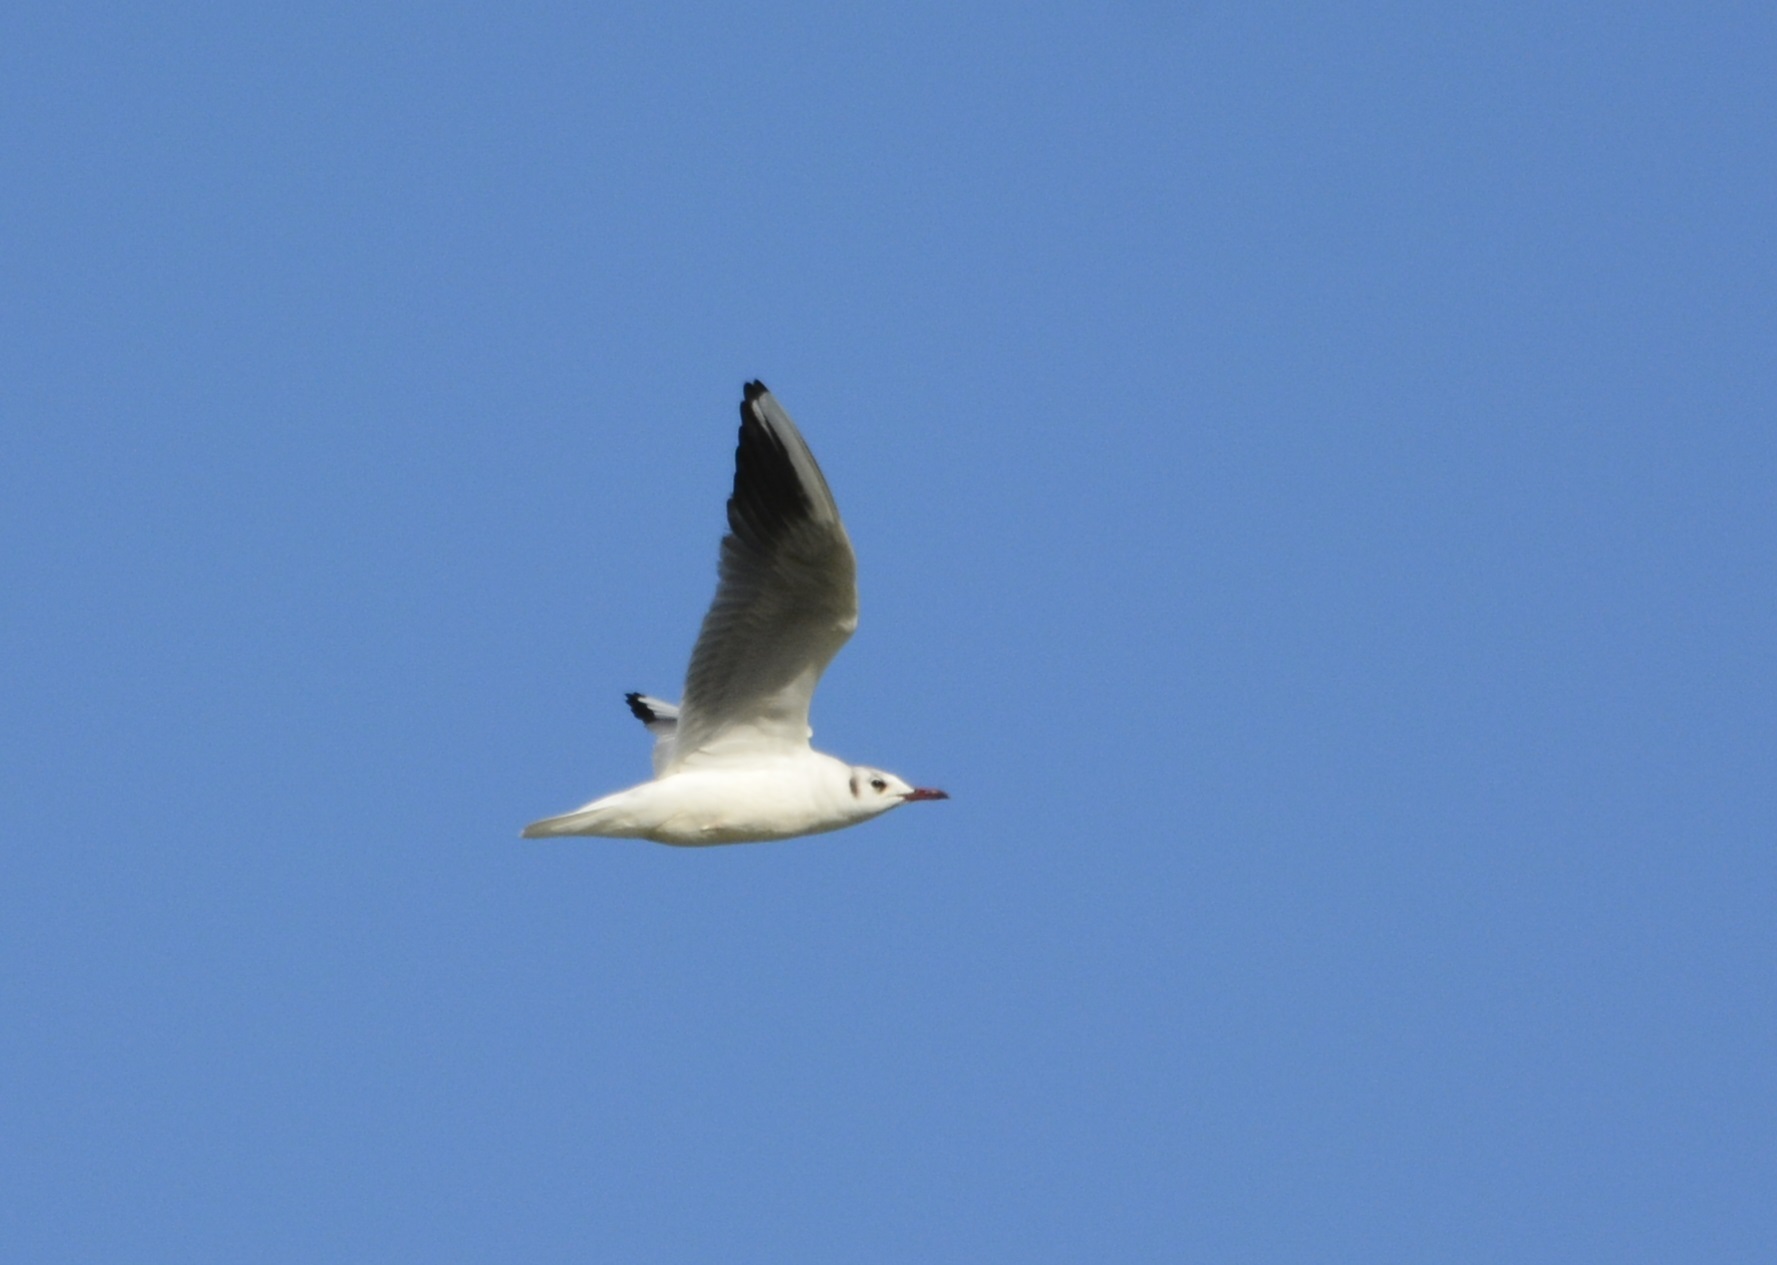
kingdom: Animalia
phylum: Chordata
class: Aves
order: Charadriiformes
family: Laridae
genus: Chroicocephalus
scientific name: Chroicocephalus ridibundus
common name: Black-headed gull
